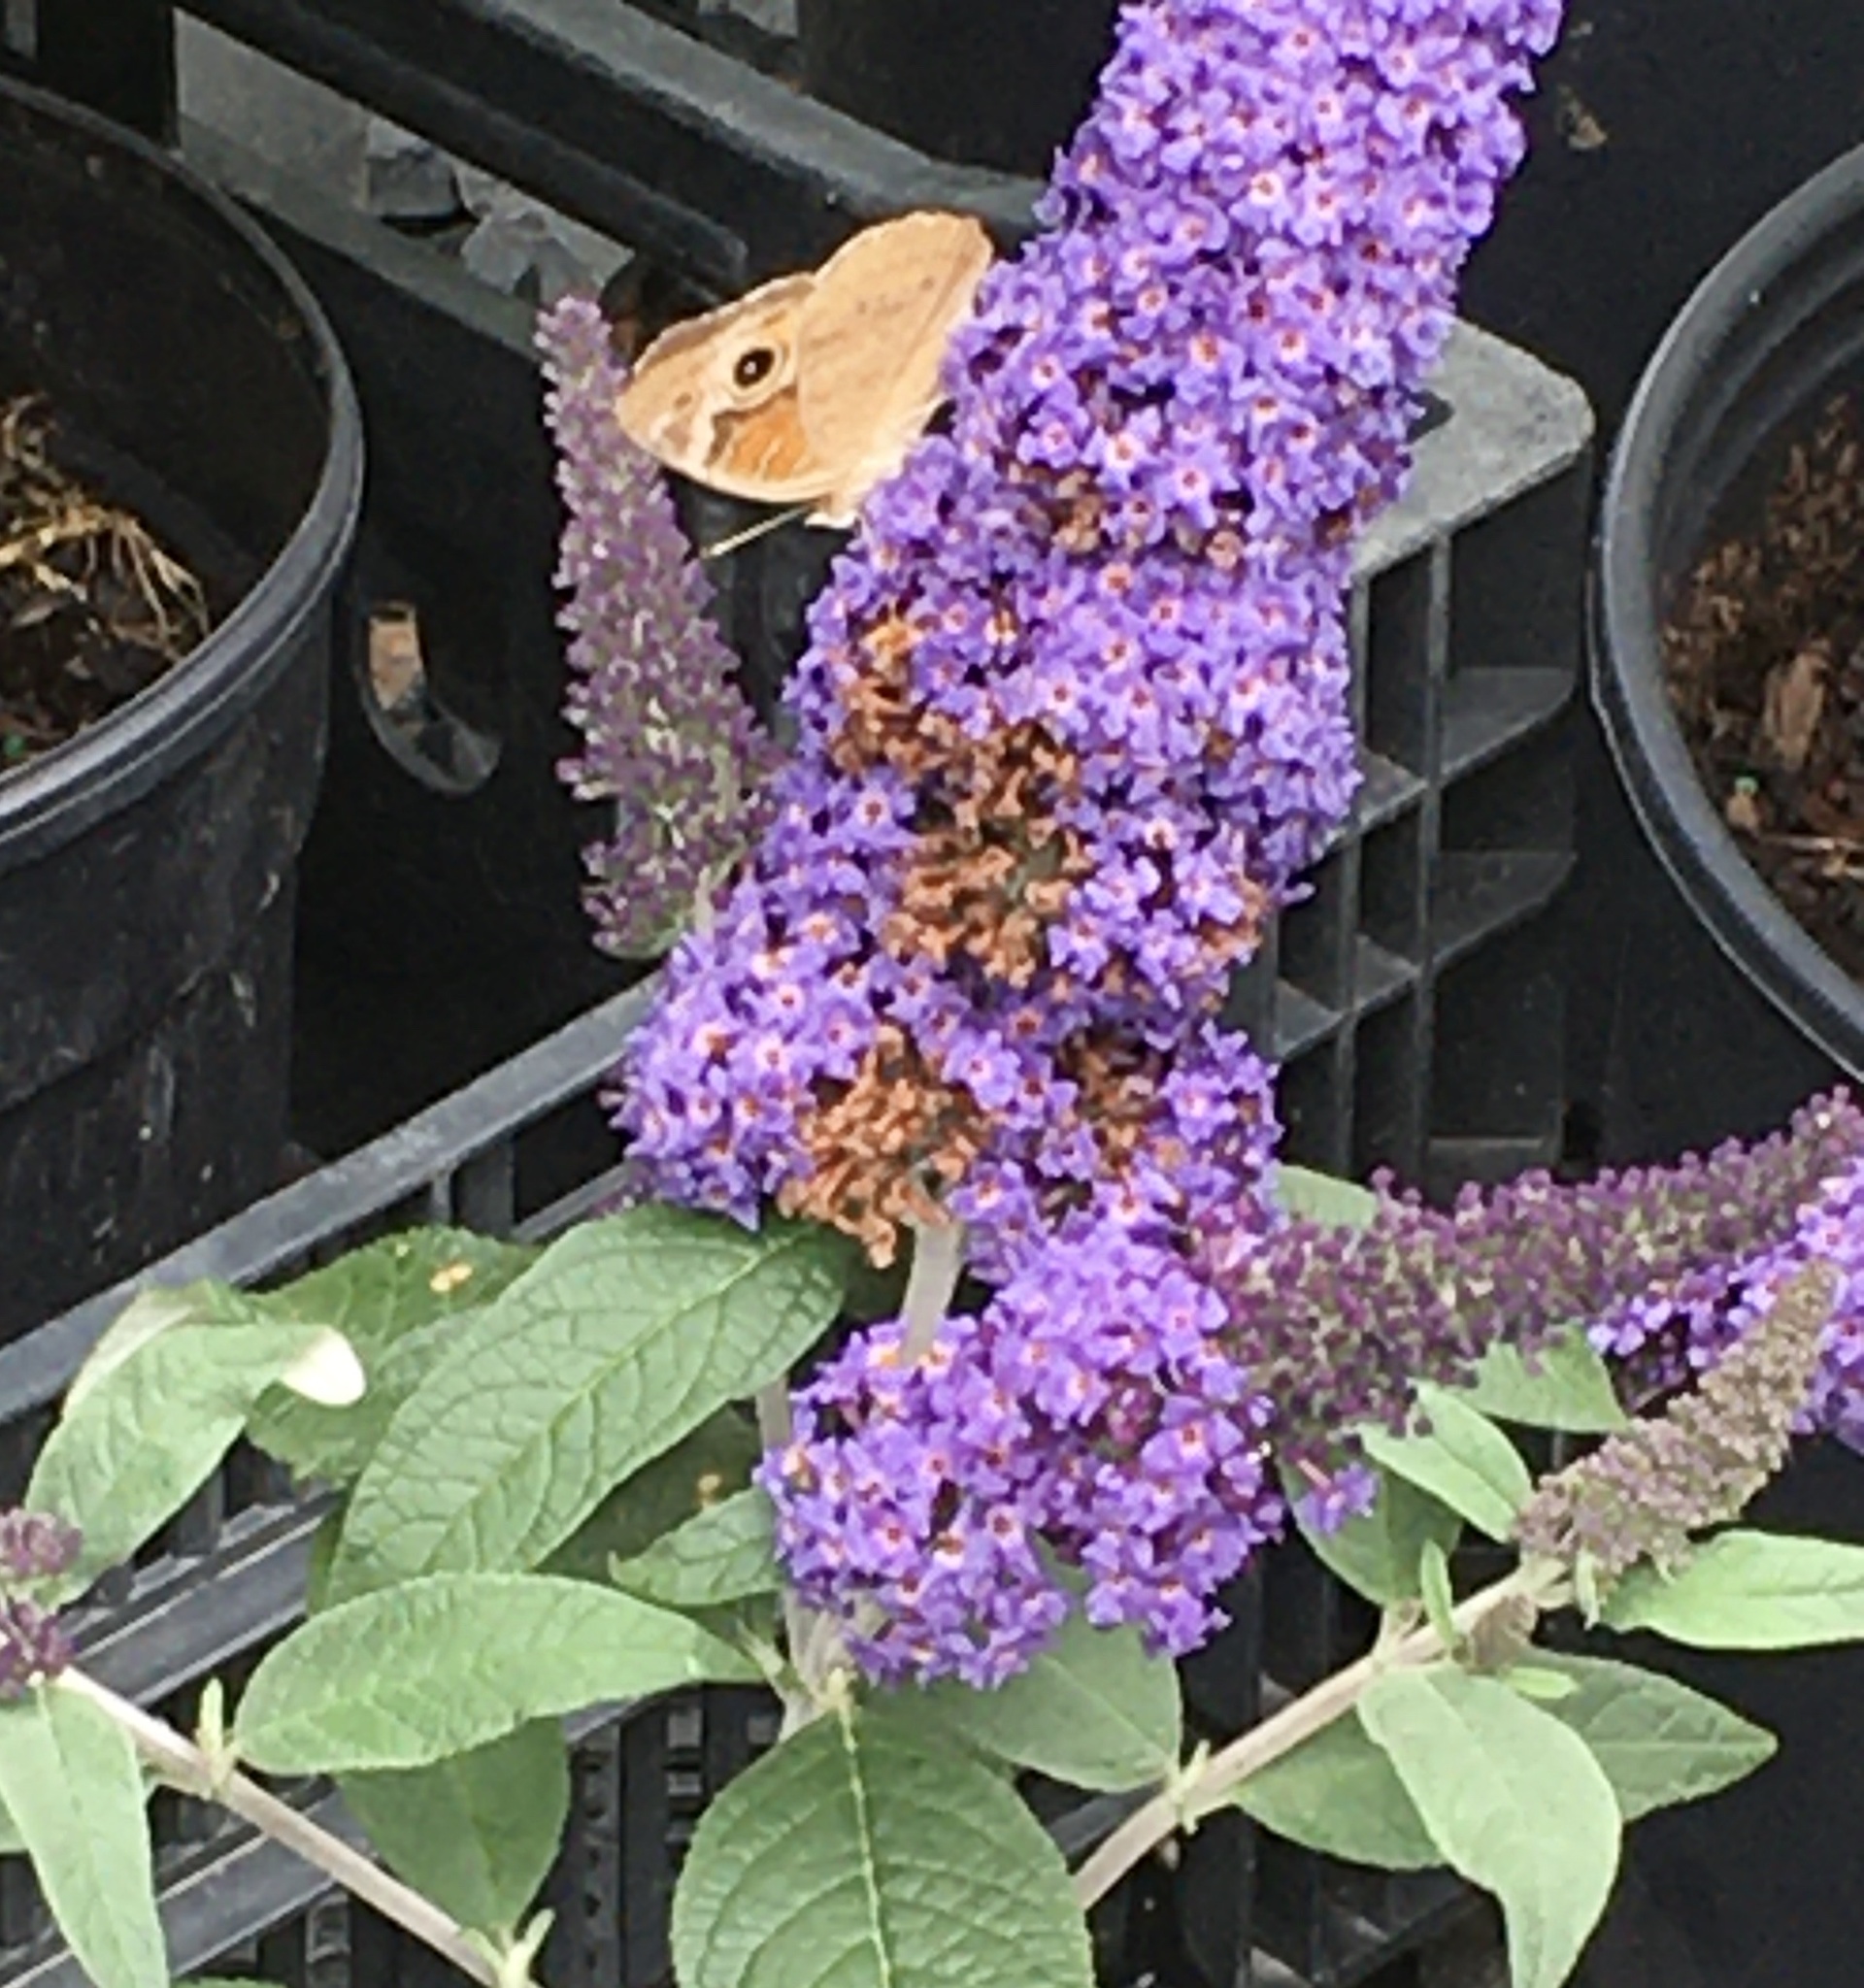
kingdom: Animalia
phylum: Arthropoda
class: Insecta
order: Lepidoptera
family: Nymphalidae
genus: Junonia
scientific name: Junonia coenia
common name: Common buckeye
